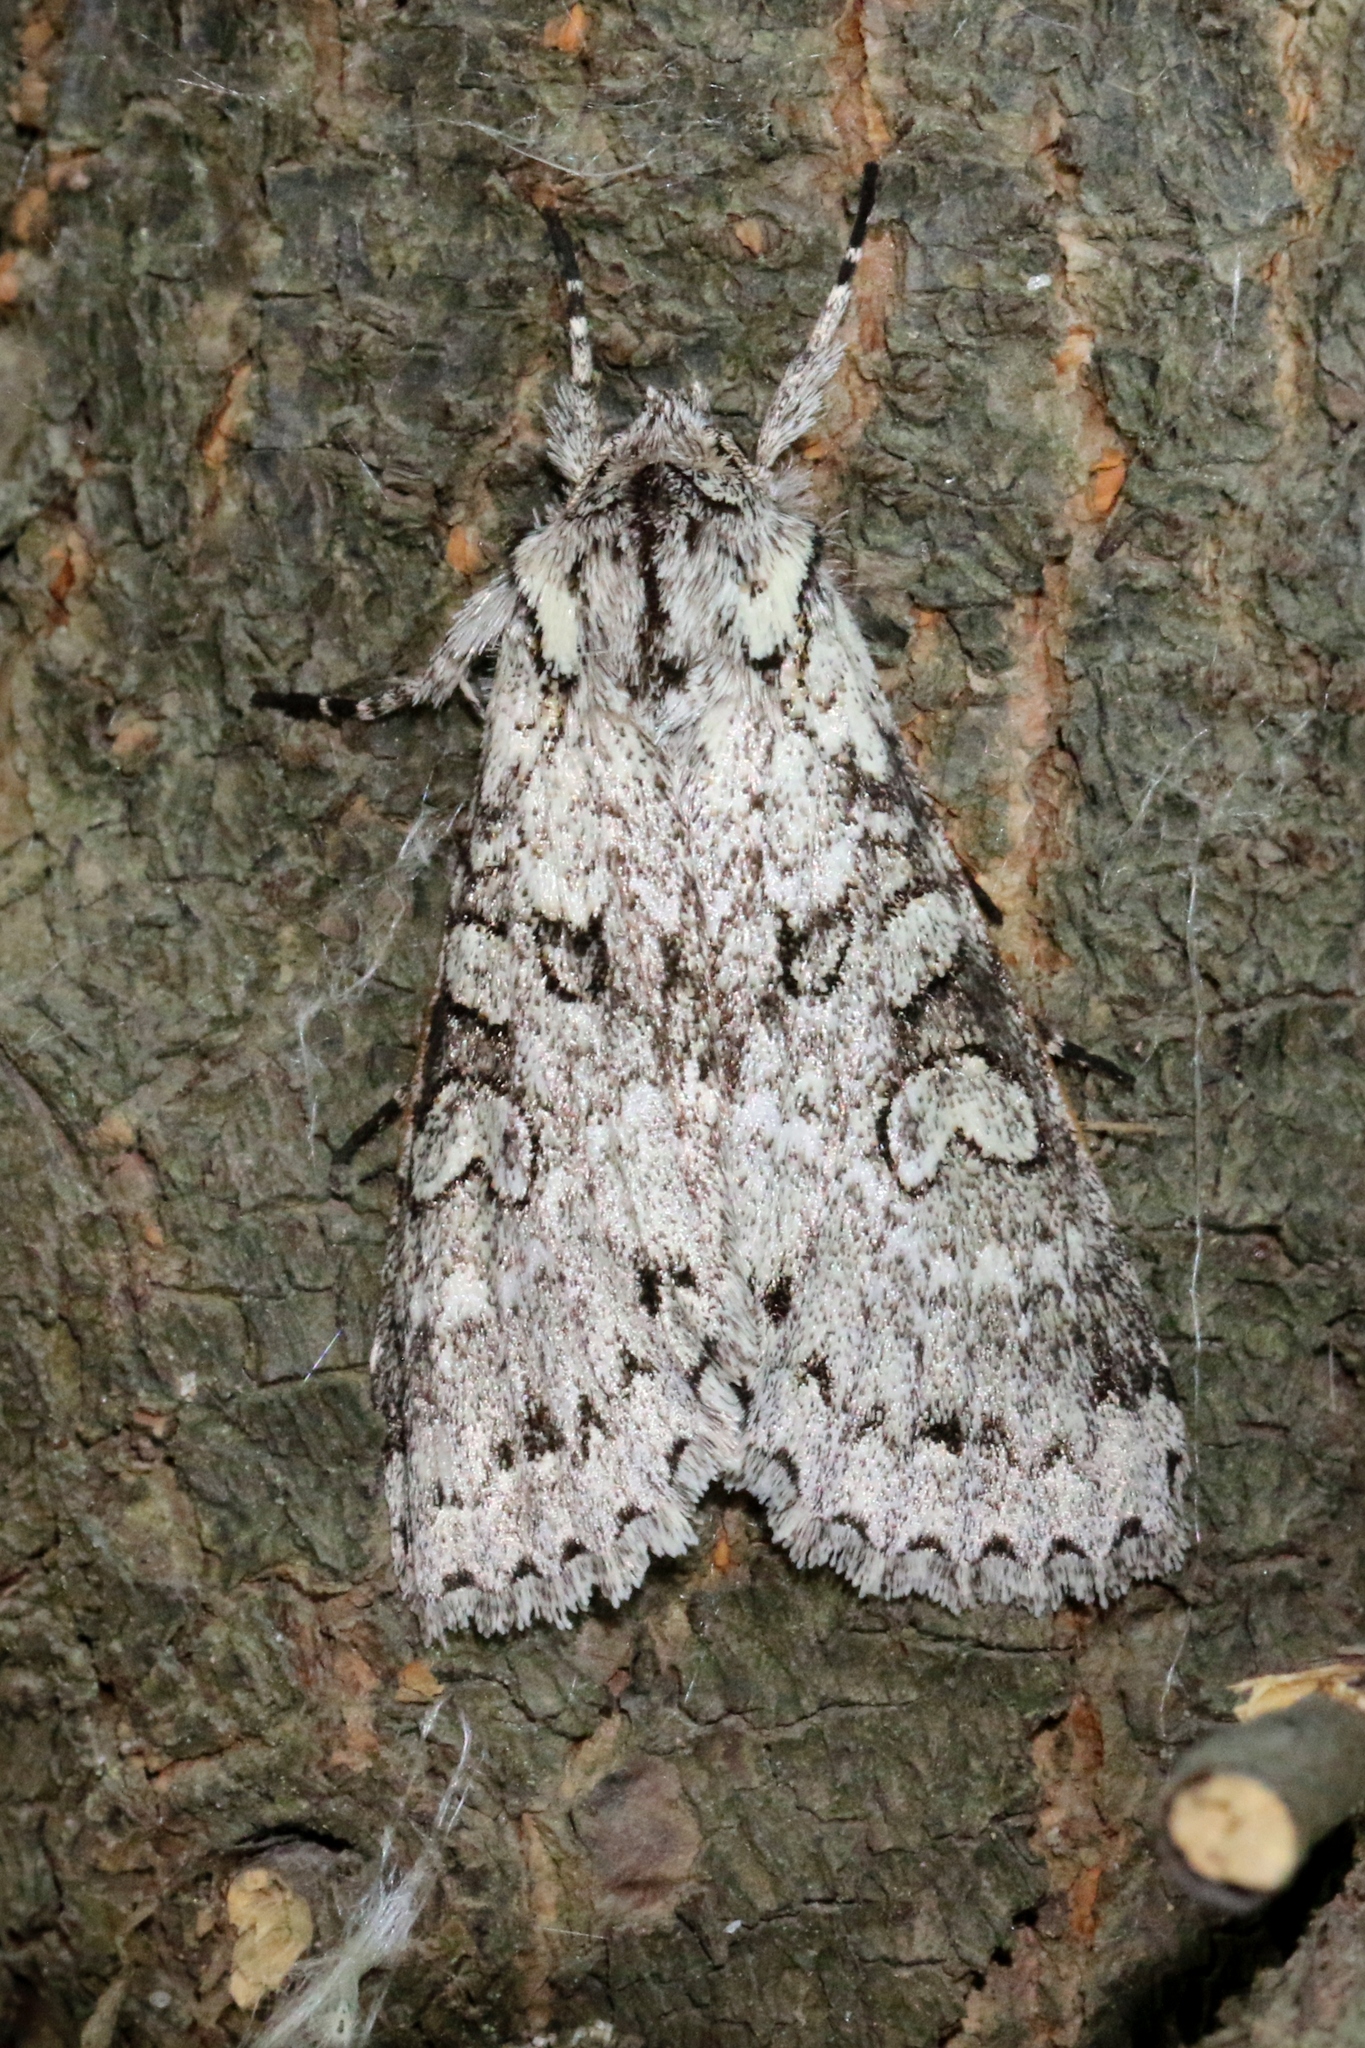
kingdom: Animalia
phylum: Arthropoda
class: Insecta
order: Lepidoptera
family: Noctuidae
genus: Polia
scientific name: Polia nimbosa
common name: Stormy arches
